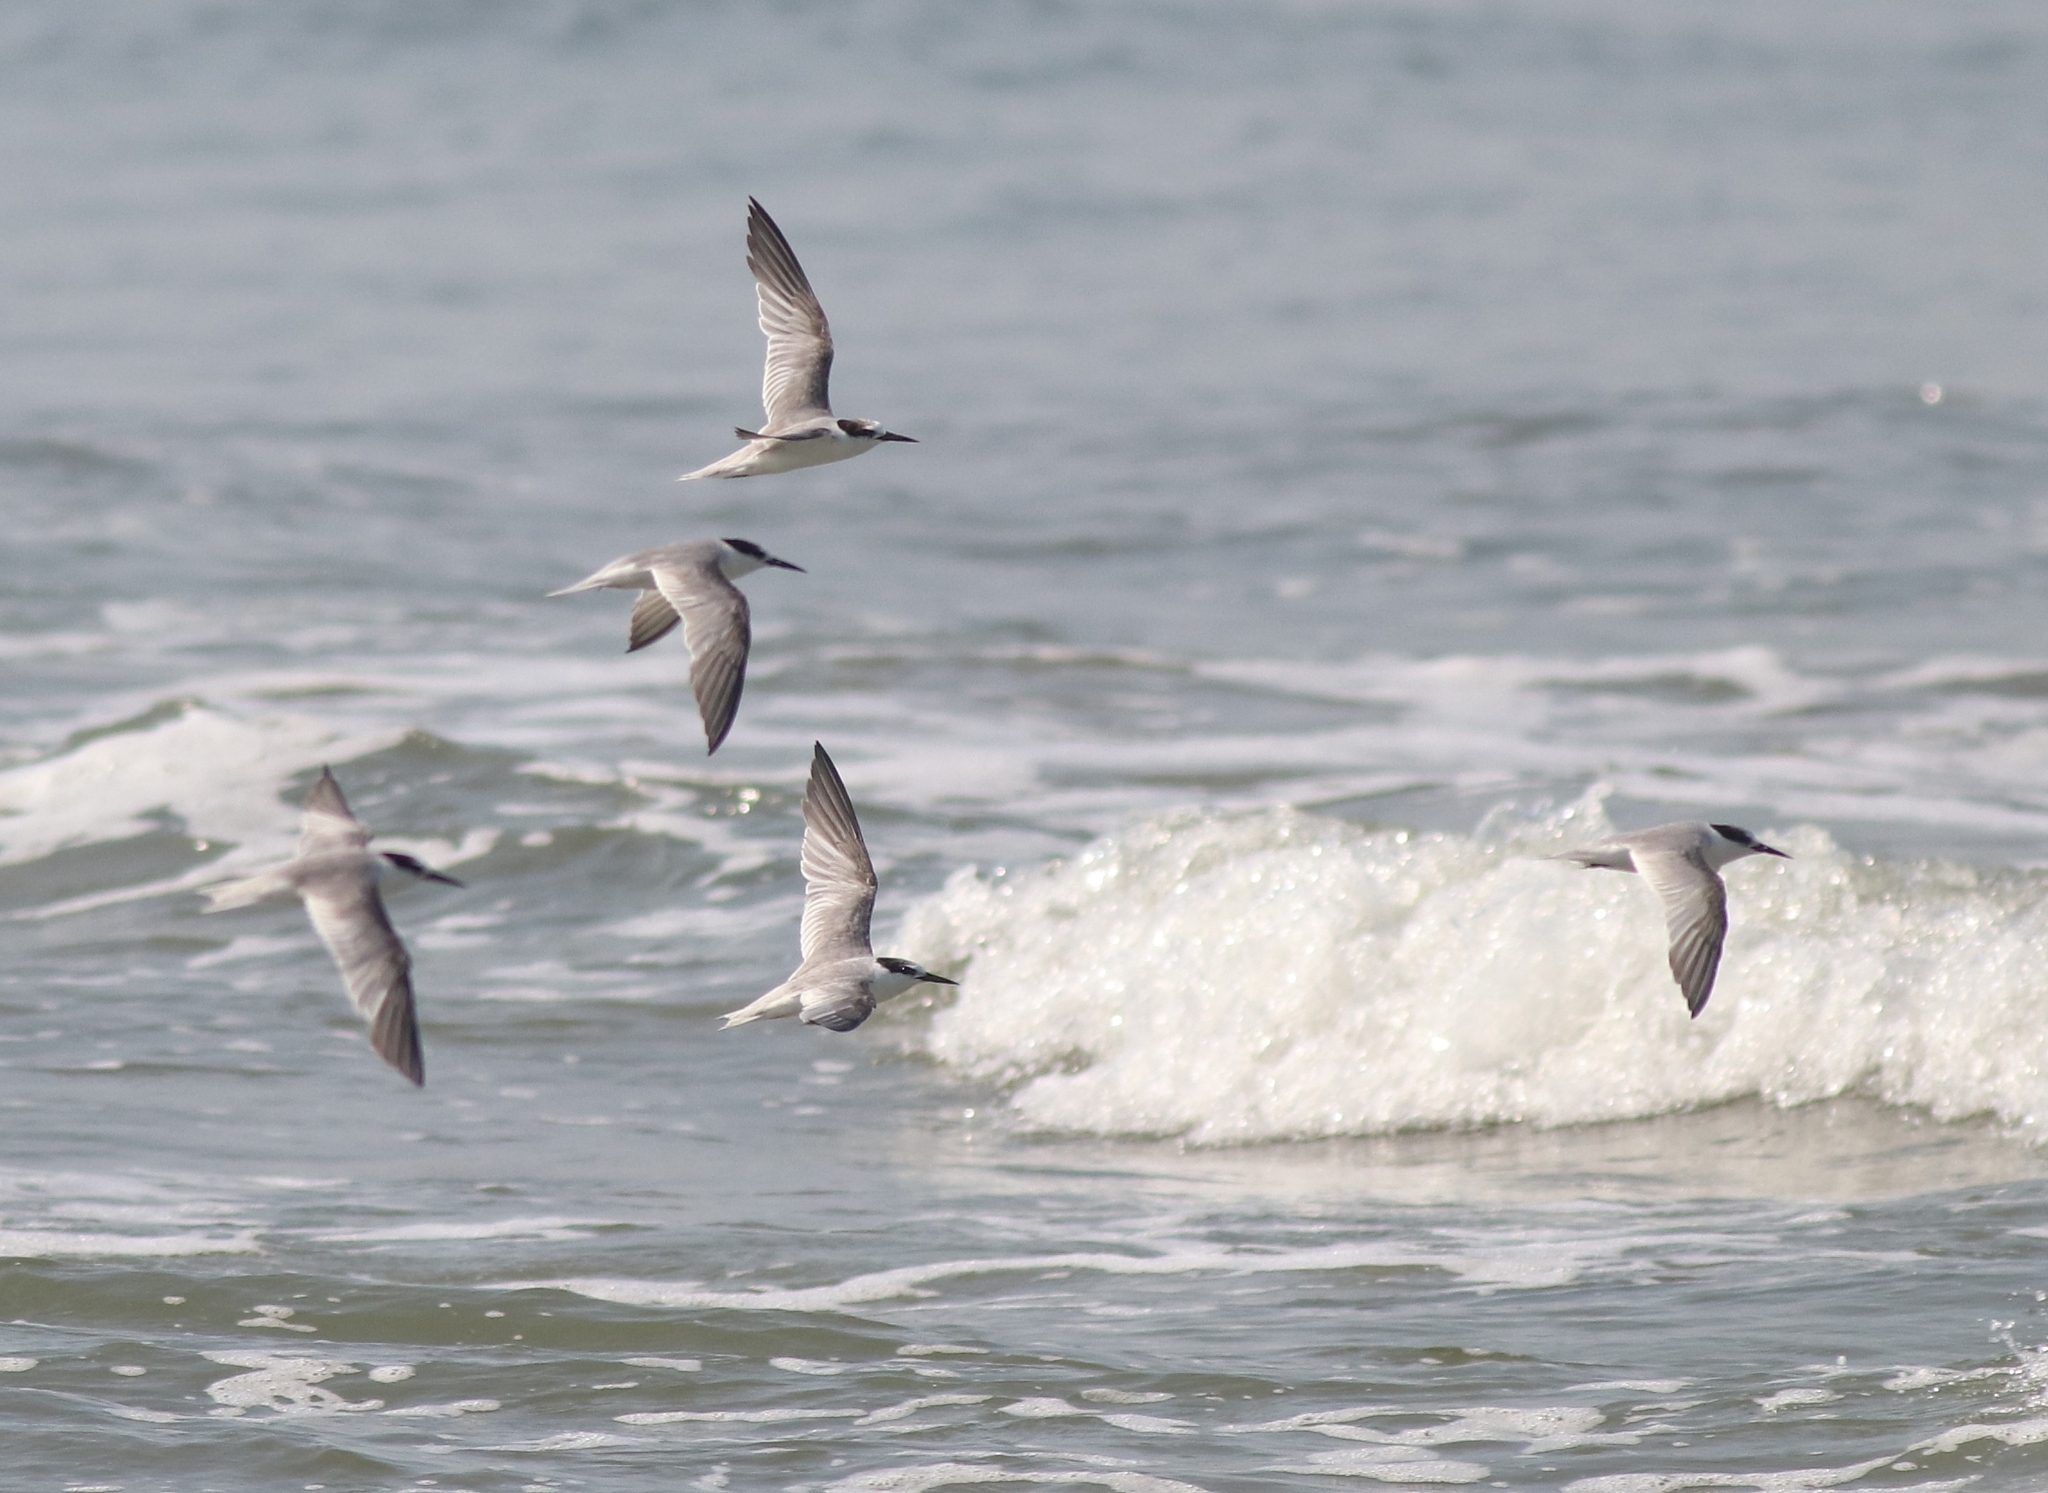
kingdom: Animalia
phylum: Chordata
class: Aves
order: Charadriiformes
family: Laridae
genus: Sternula
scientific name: Sternula albifrons
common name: Little tern
